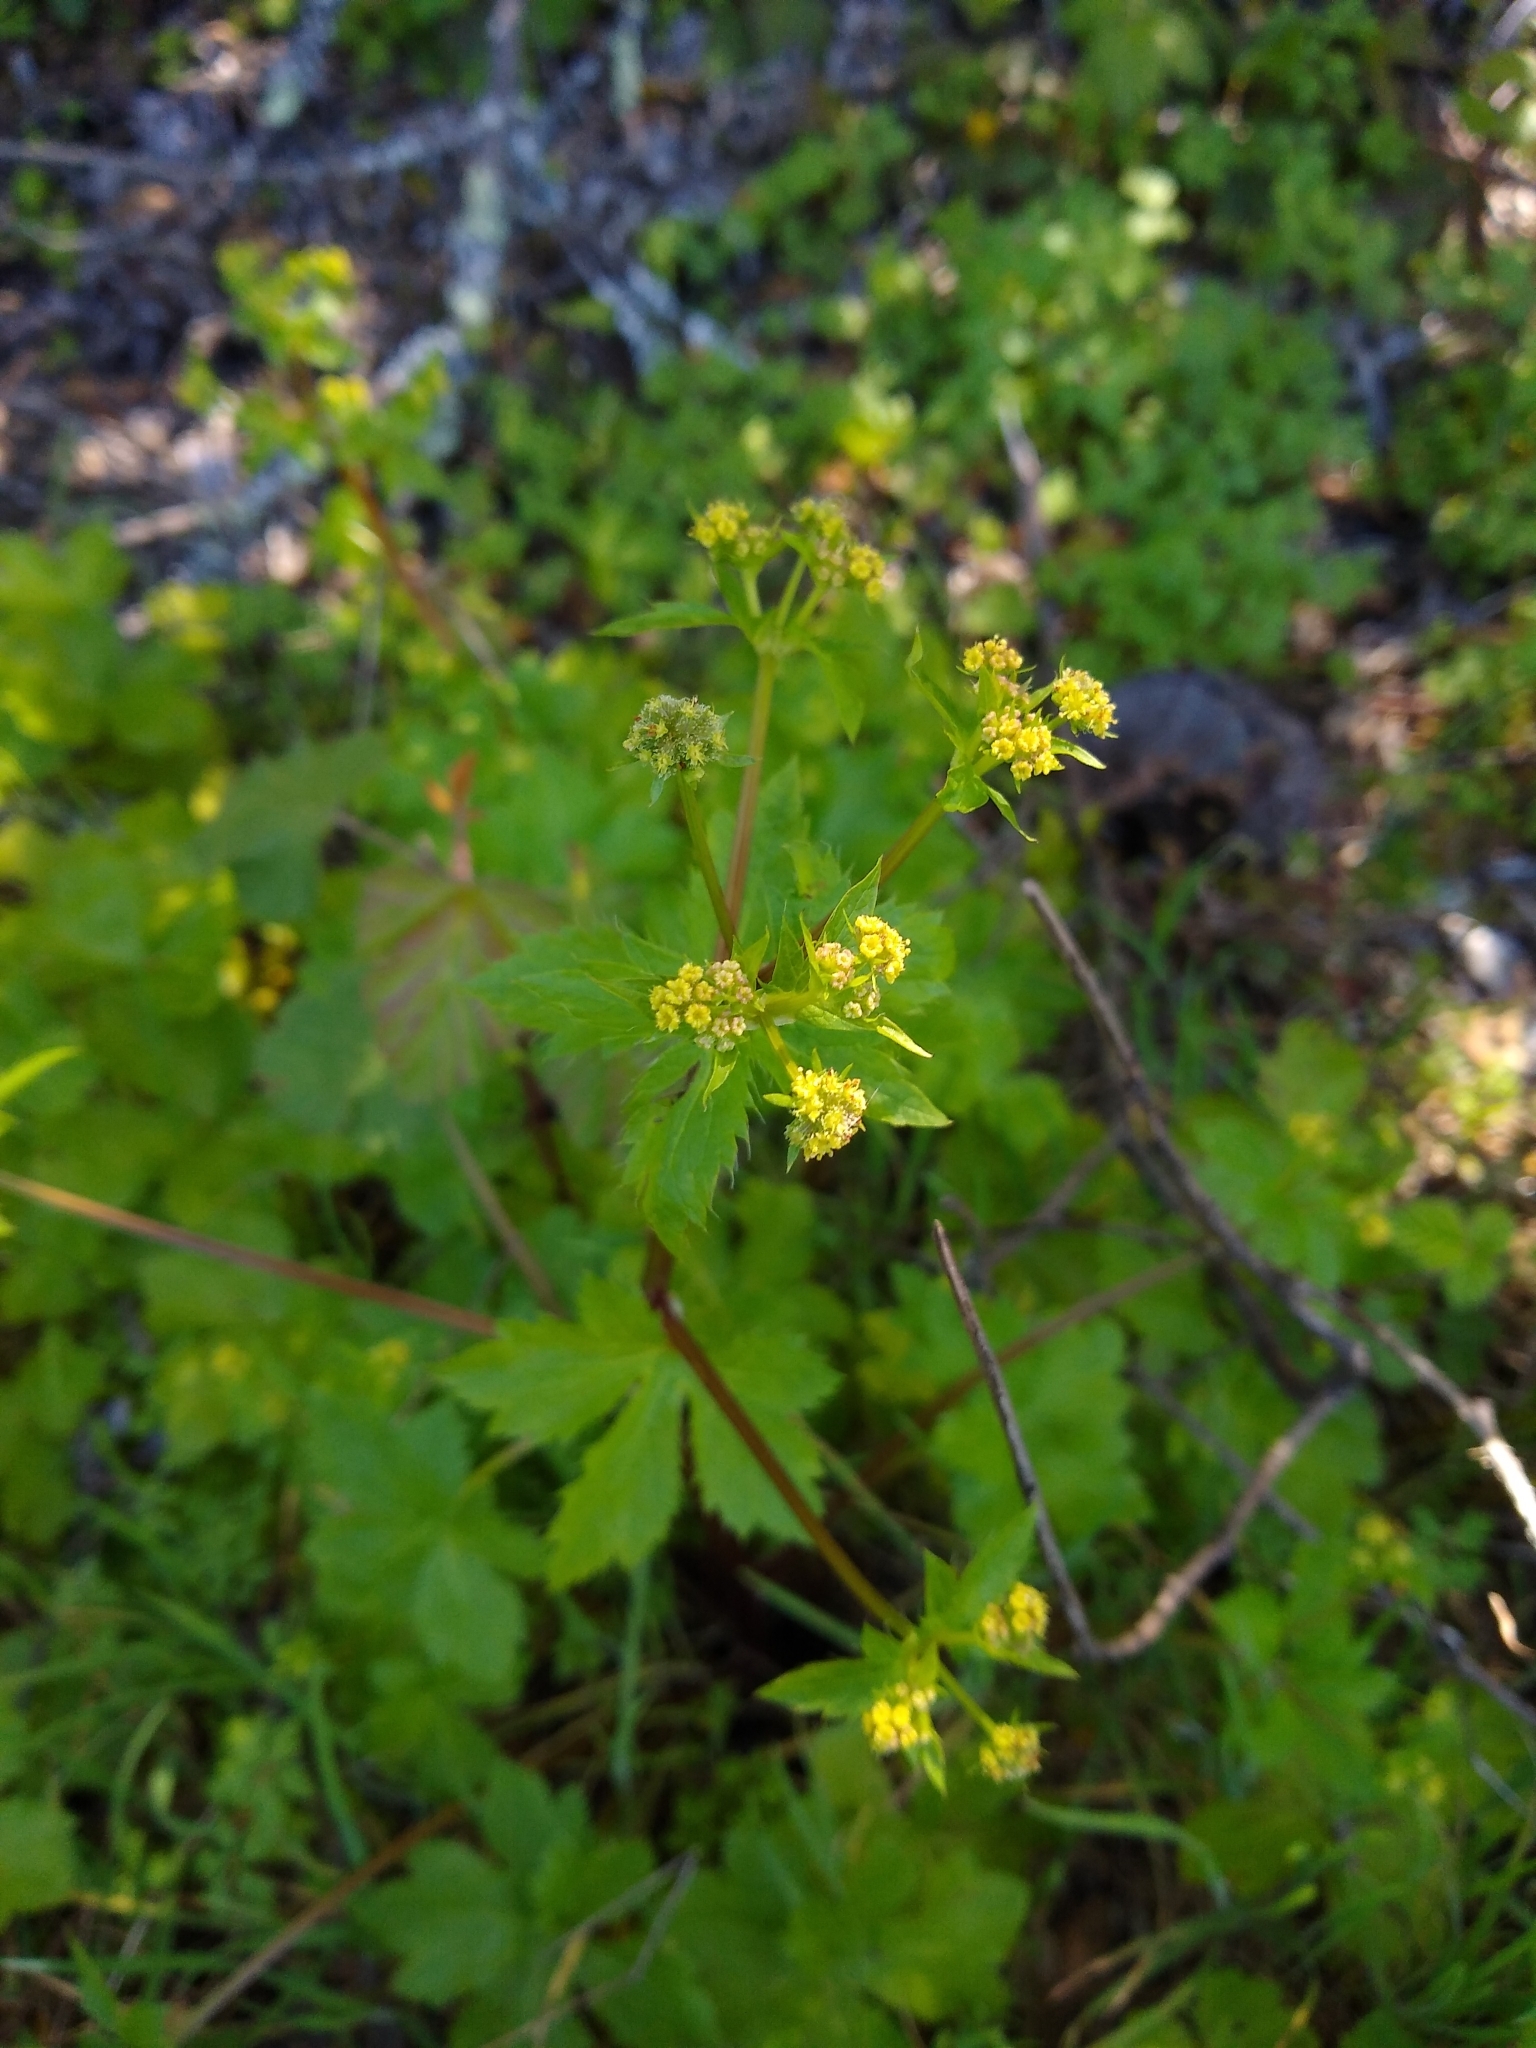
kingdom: Plantae
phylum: Tracheophyta
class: Magnoliopsida
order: Apiales
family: Apiaceae
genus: Sanicula
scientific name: Sanicula crassicaulis
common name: Western snakeroot
